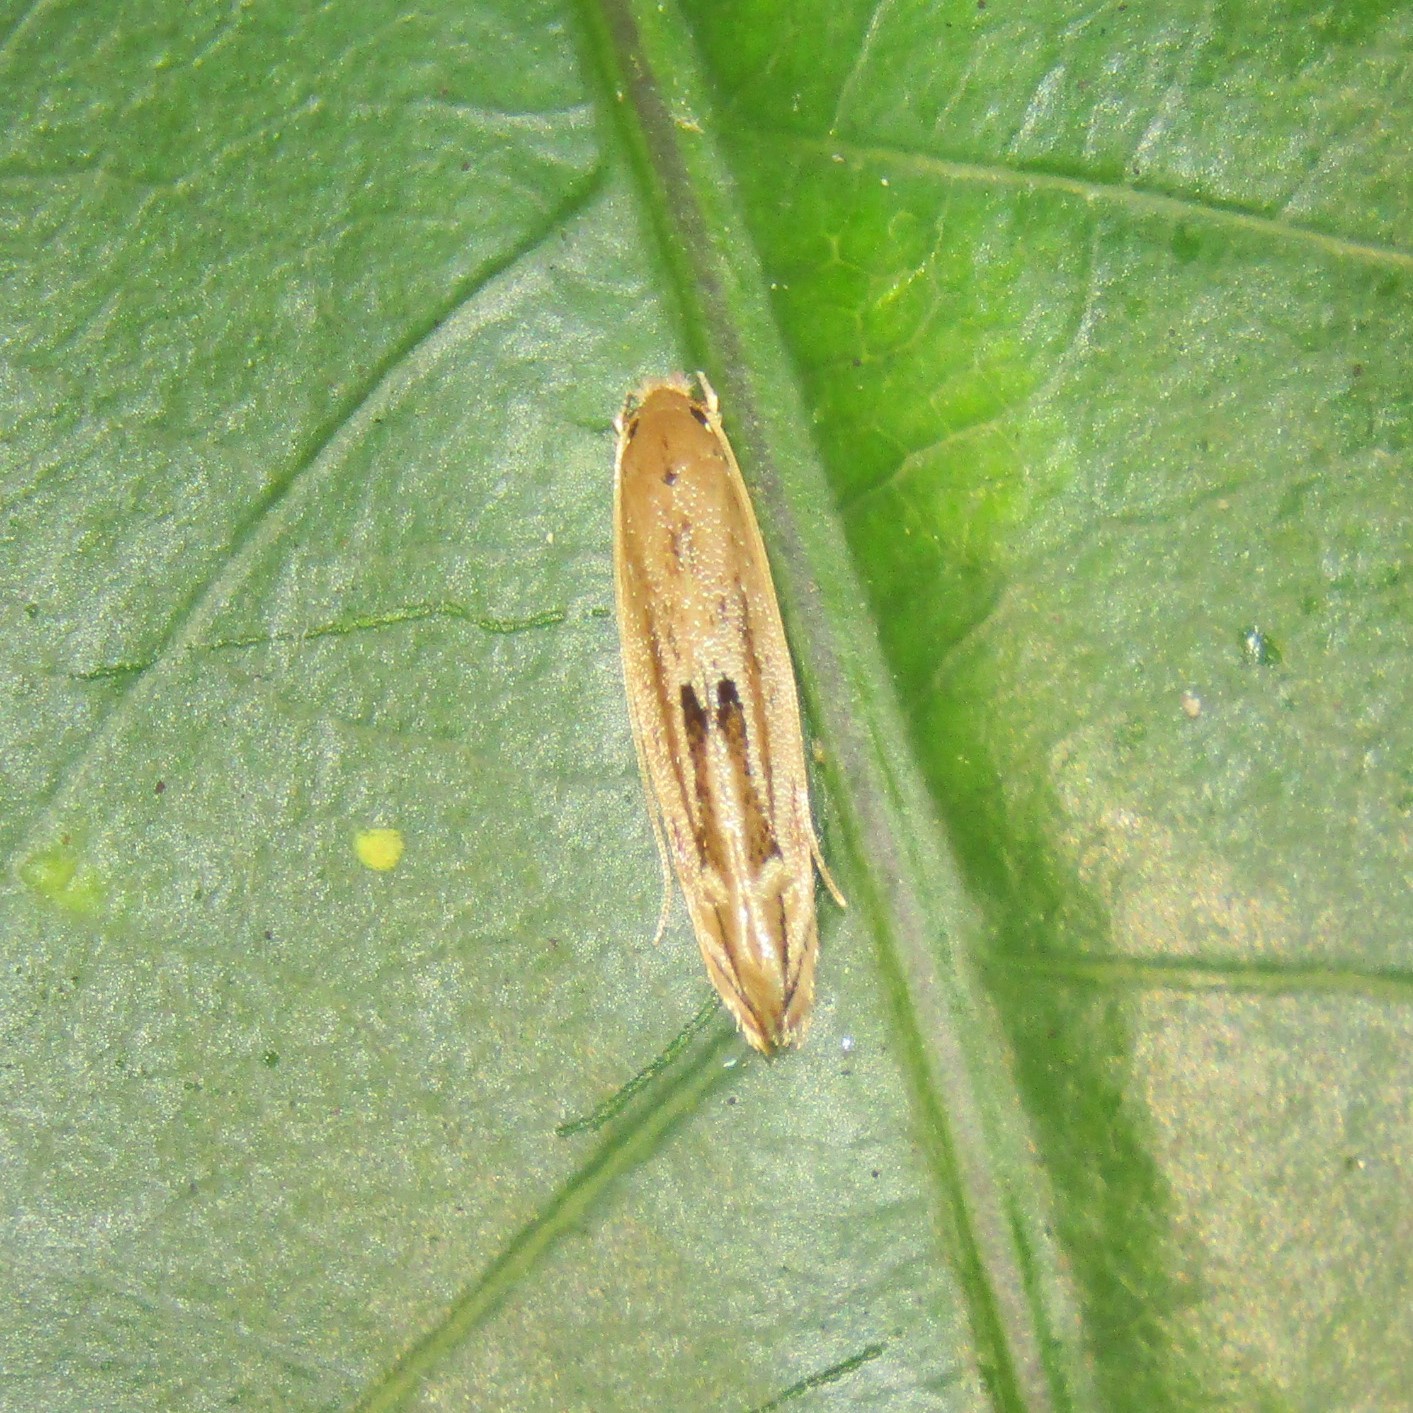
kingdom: Animalia
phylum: Arthropoda
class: Insecta
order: Lepidoptera
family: Tineidae
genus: Amphixystis
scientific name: Amphixystis hapsimacha
